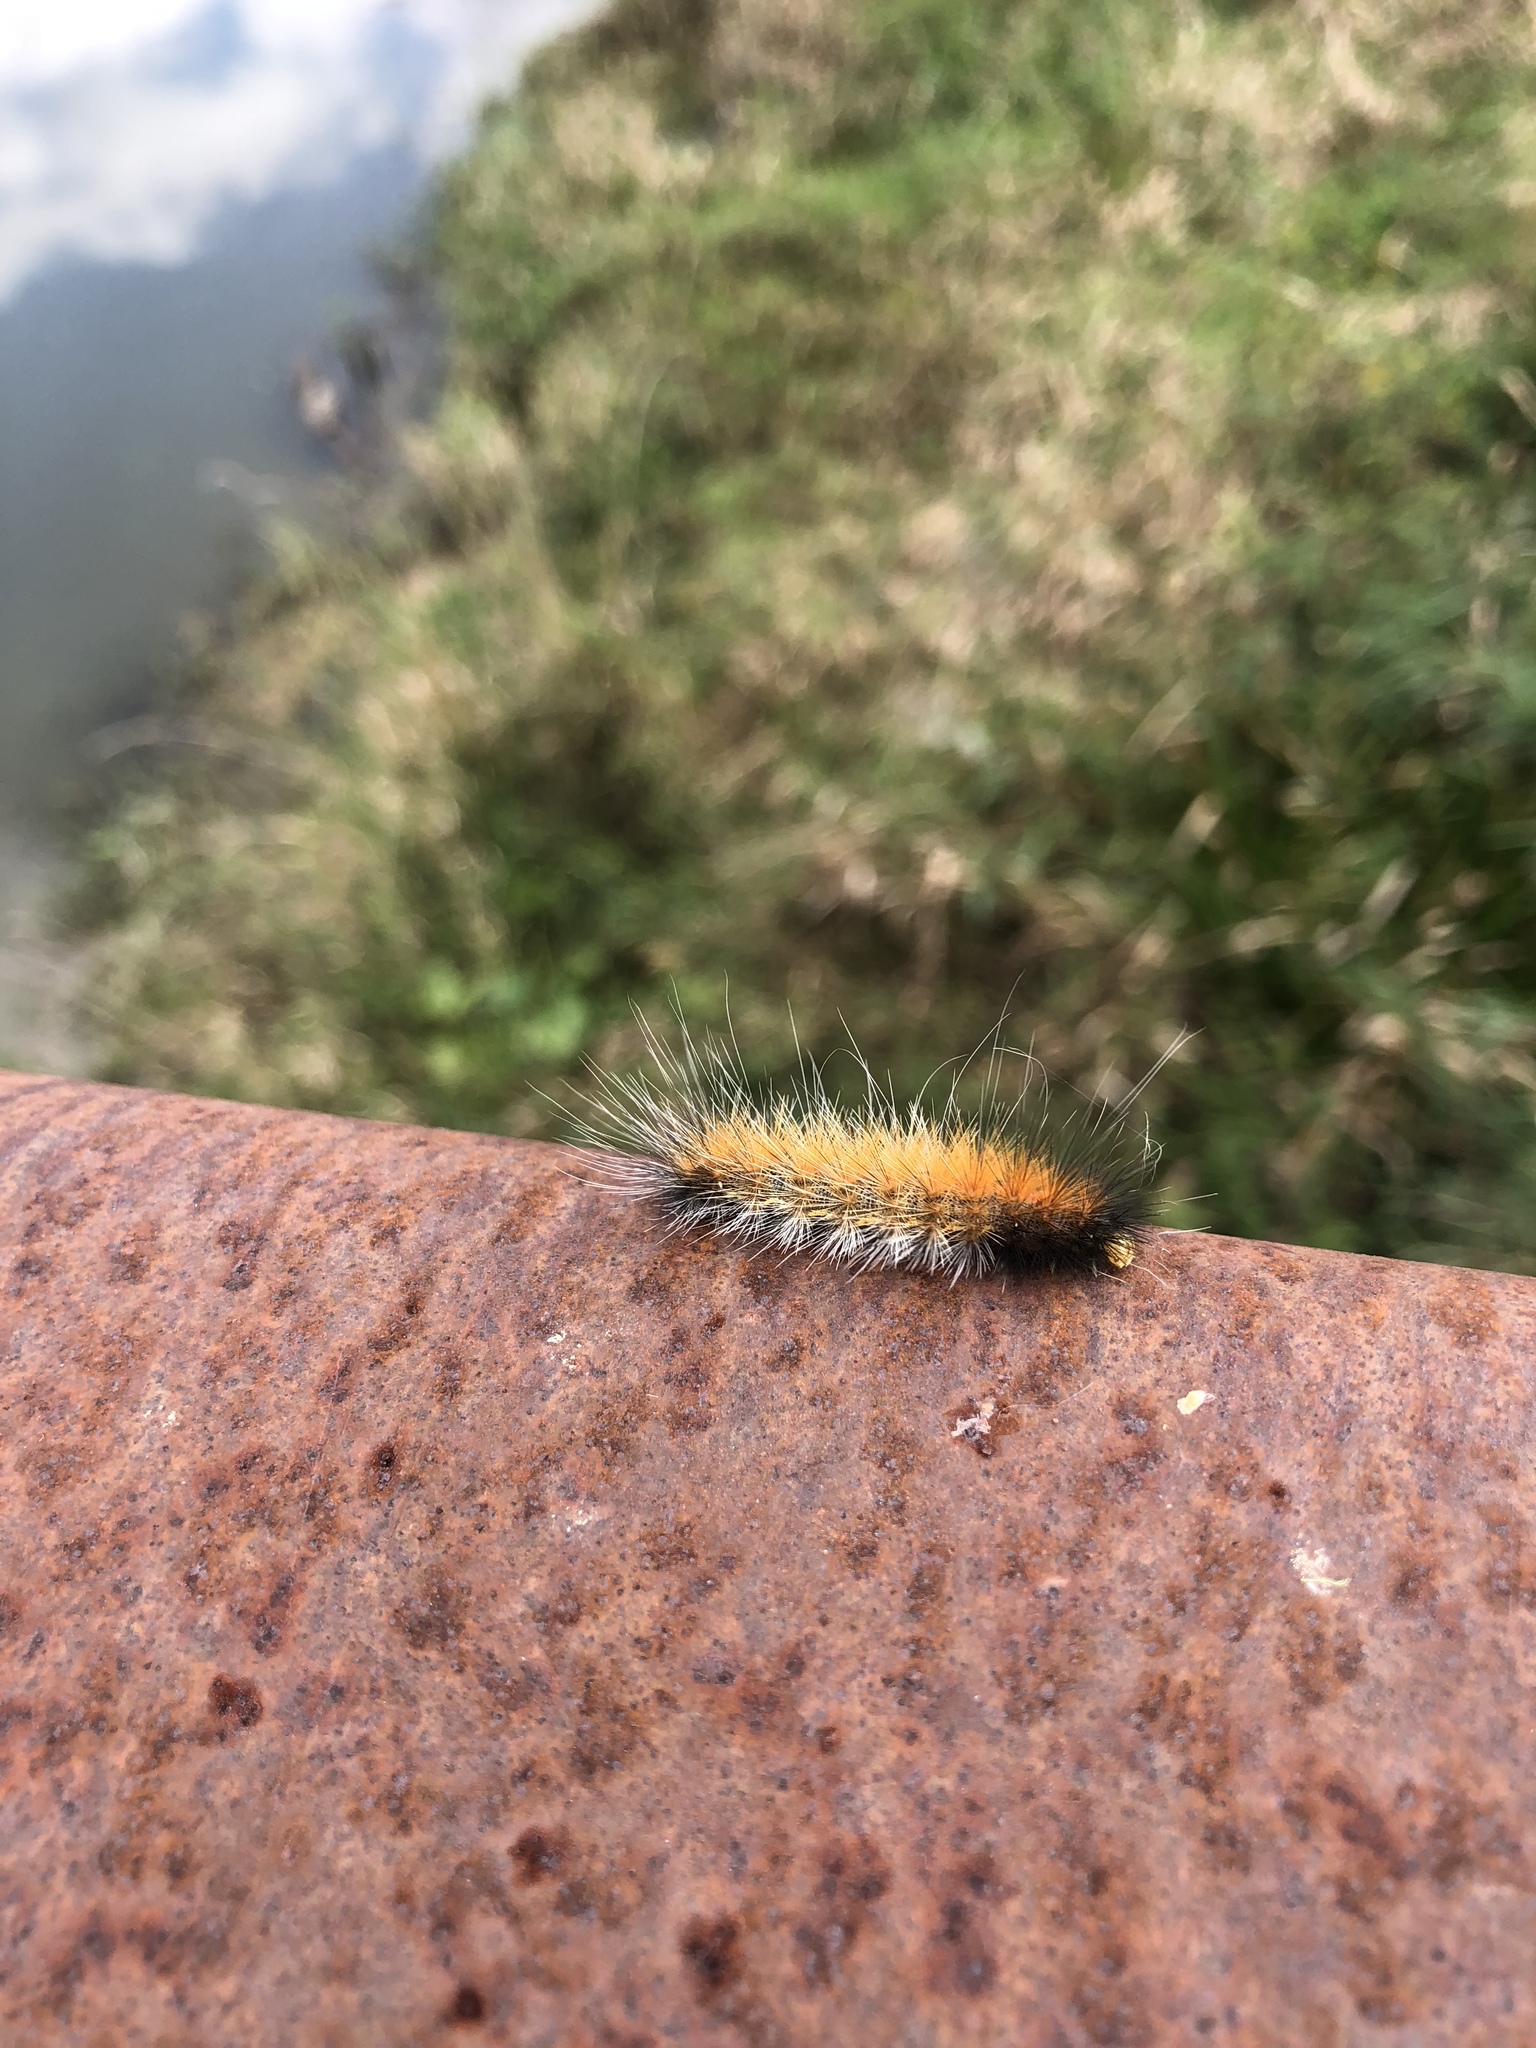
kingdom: Animalia
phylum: Arthropoda
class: Insecta
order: Lepidoptera
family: Erebidae
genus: Spilosoma
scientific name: Spilosoma virginica
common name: Virginia tiger moth
